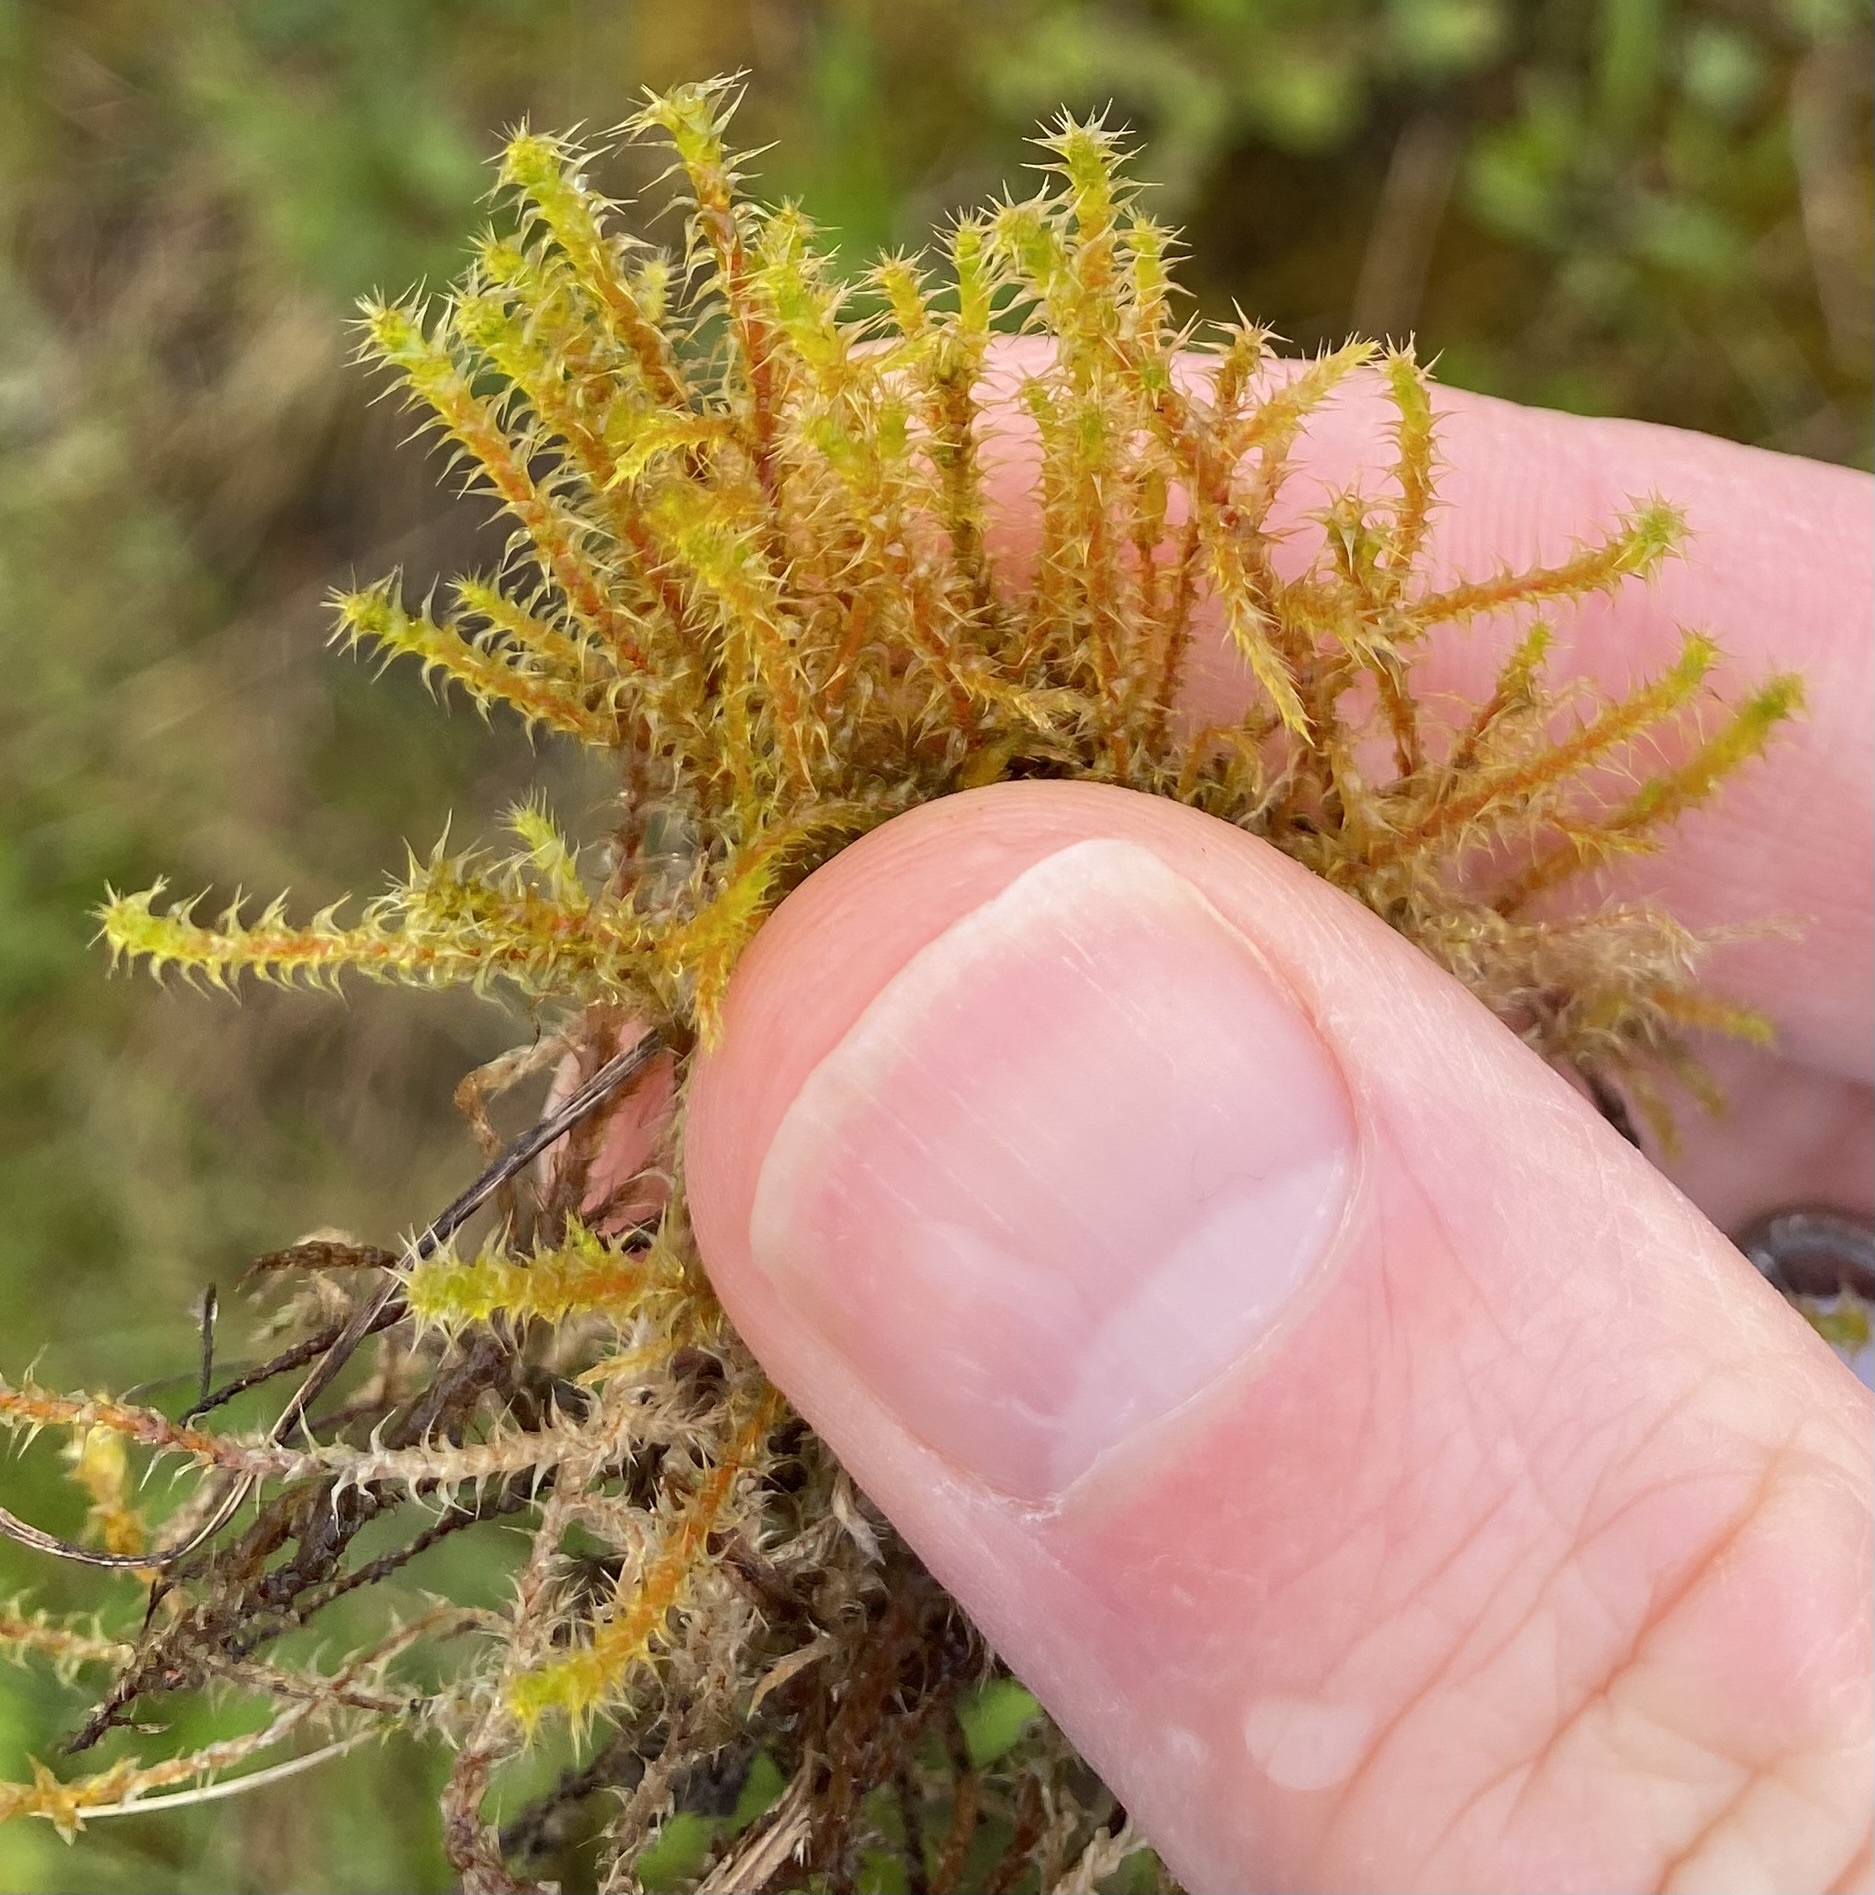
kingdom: Plantae
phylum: Bryophyta
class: Bryopsida
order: Hypnales
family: Hylocomiaceae
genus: Rhytidiadelphus
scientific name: Rhytidiadelphus squarrosus
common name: Springy turf-moss
